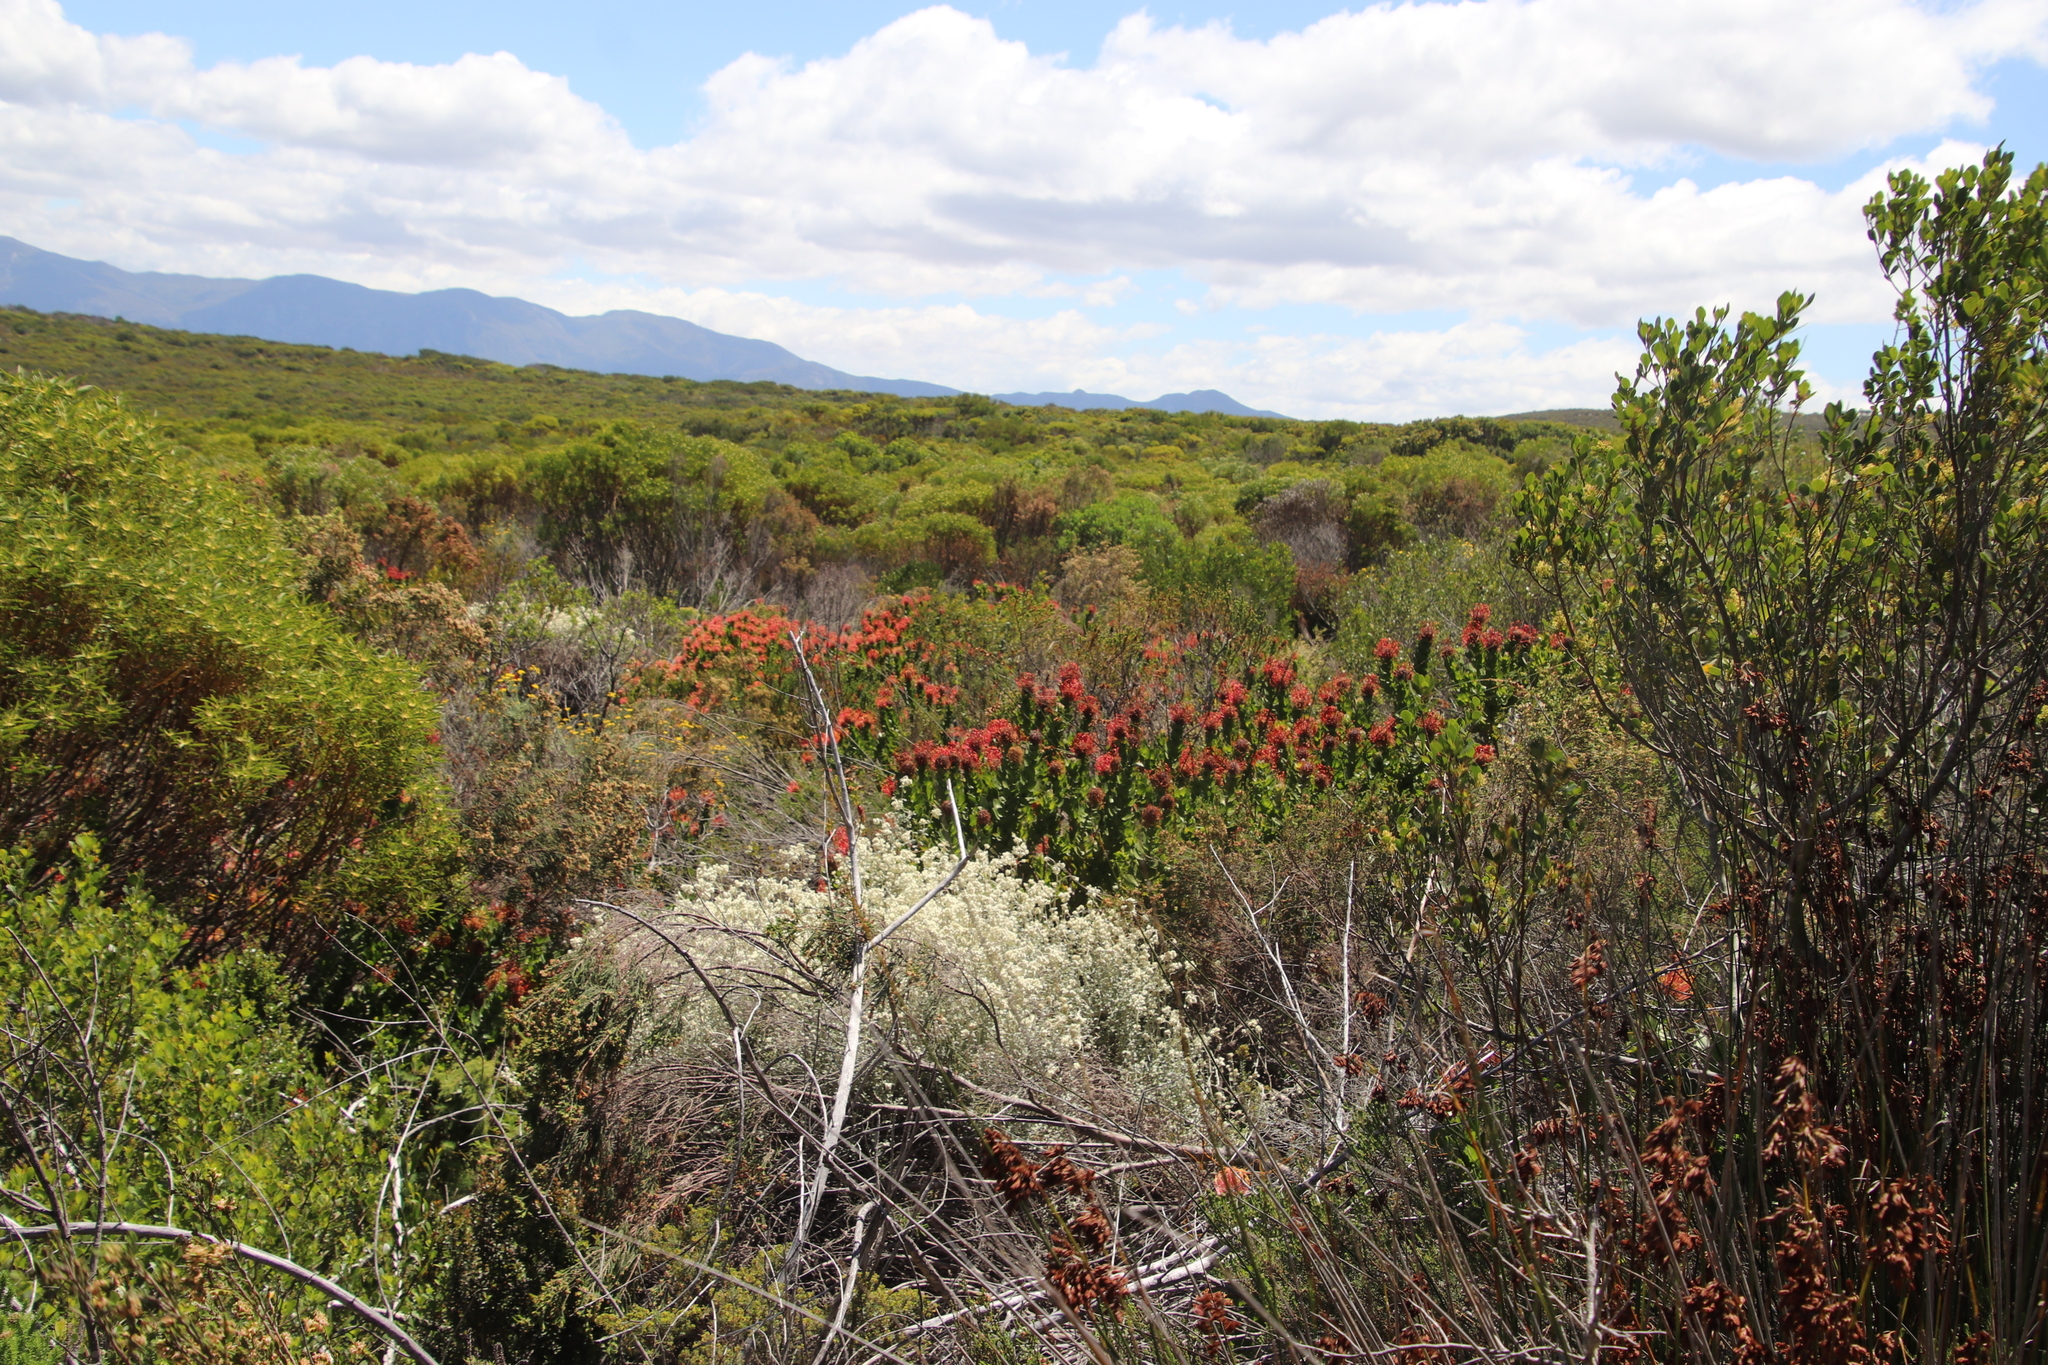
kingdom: Plantae
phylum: Tracheophyta
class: Magnoliopsida
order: Proteales
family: Proteaceae
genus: Leucospermum
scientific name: Leucospermum patersonii
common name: False tree pincushion
